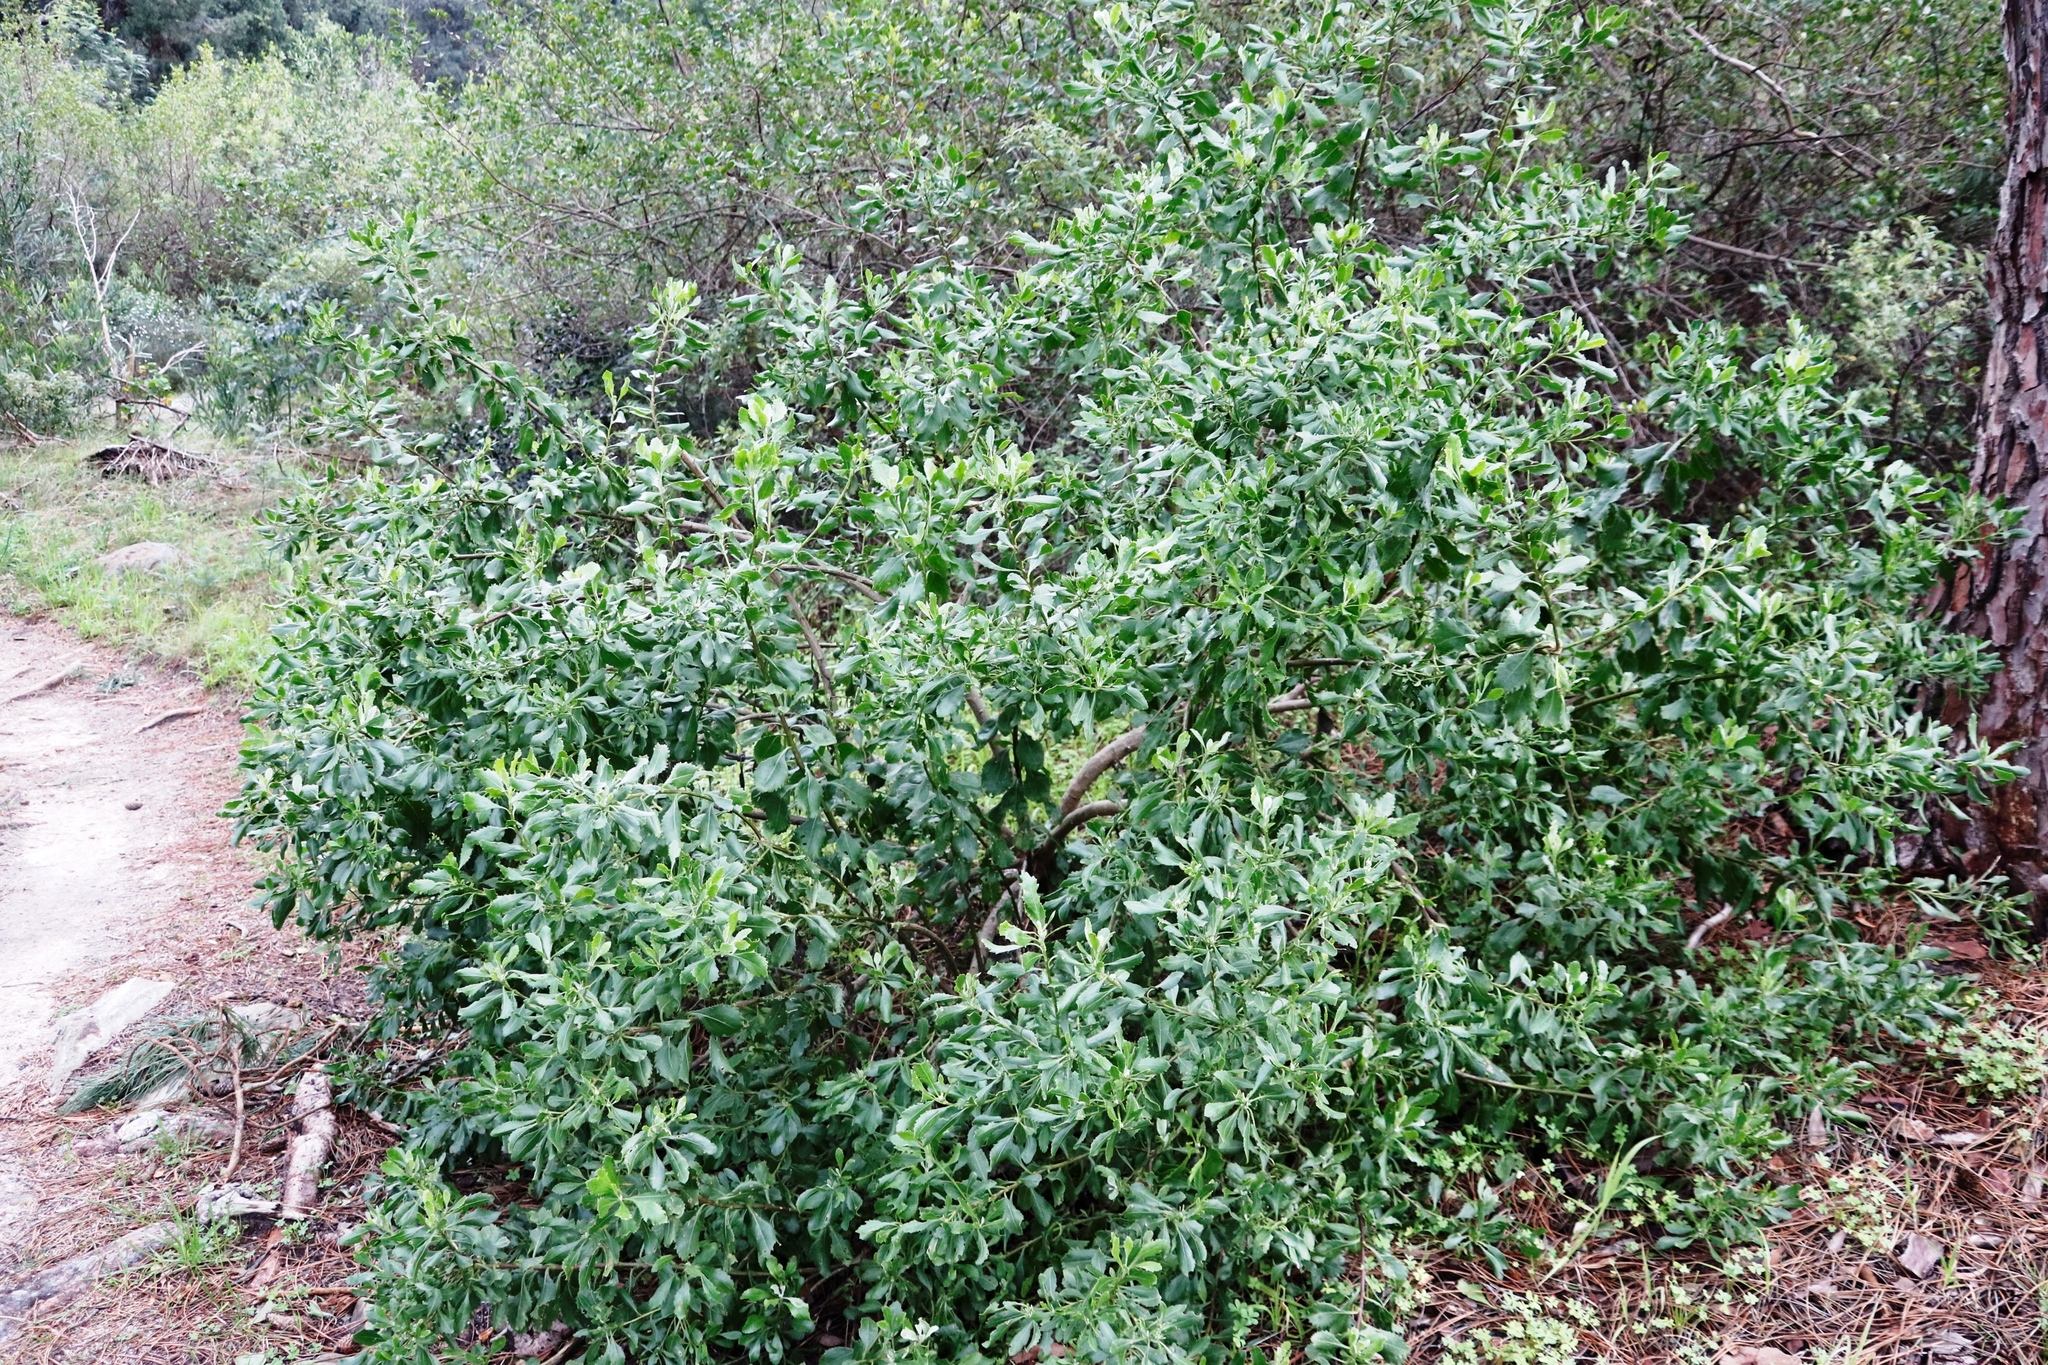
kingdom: Plantae
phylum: Tracheophyta
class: Magnoliopsida
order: Asterales
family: Asteraceae
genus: Osteospermum
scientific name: Osteospermum moniliferum
